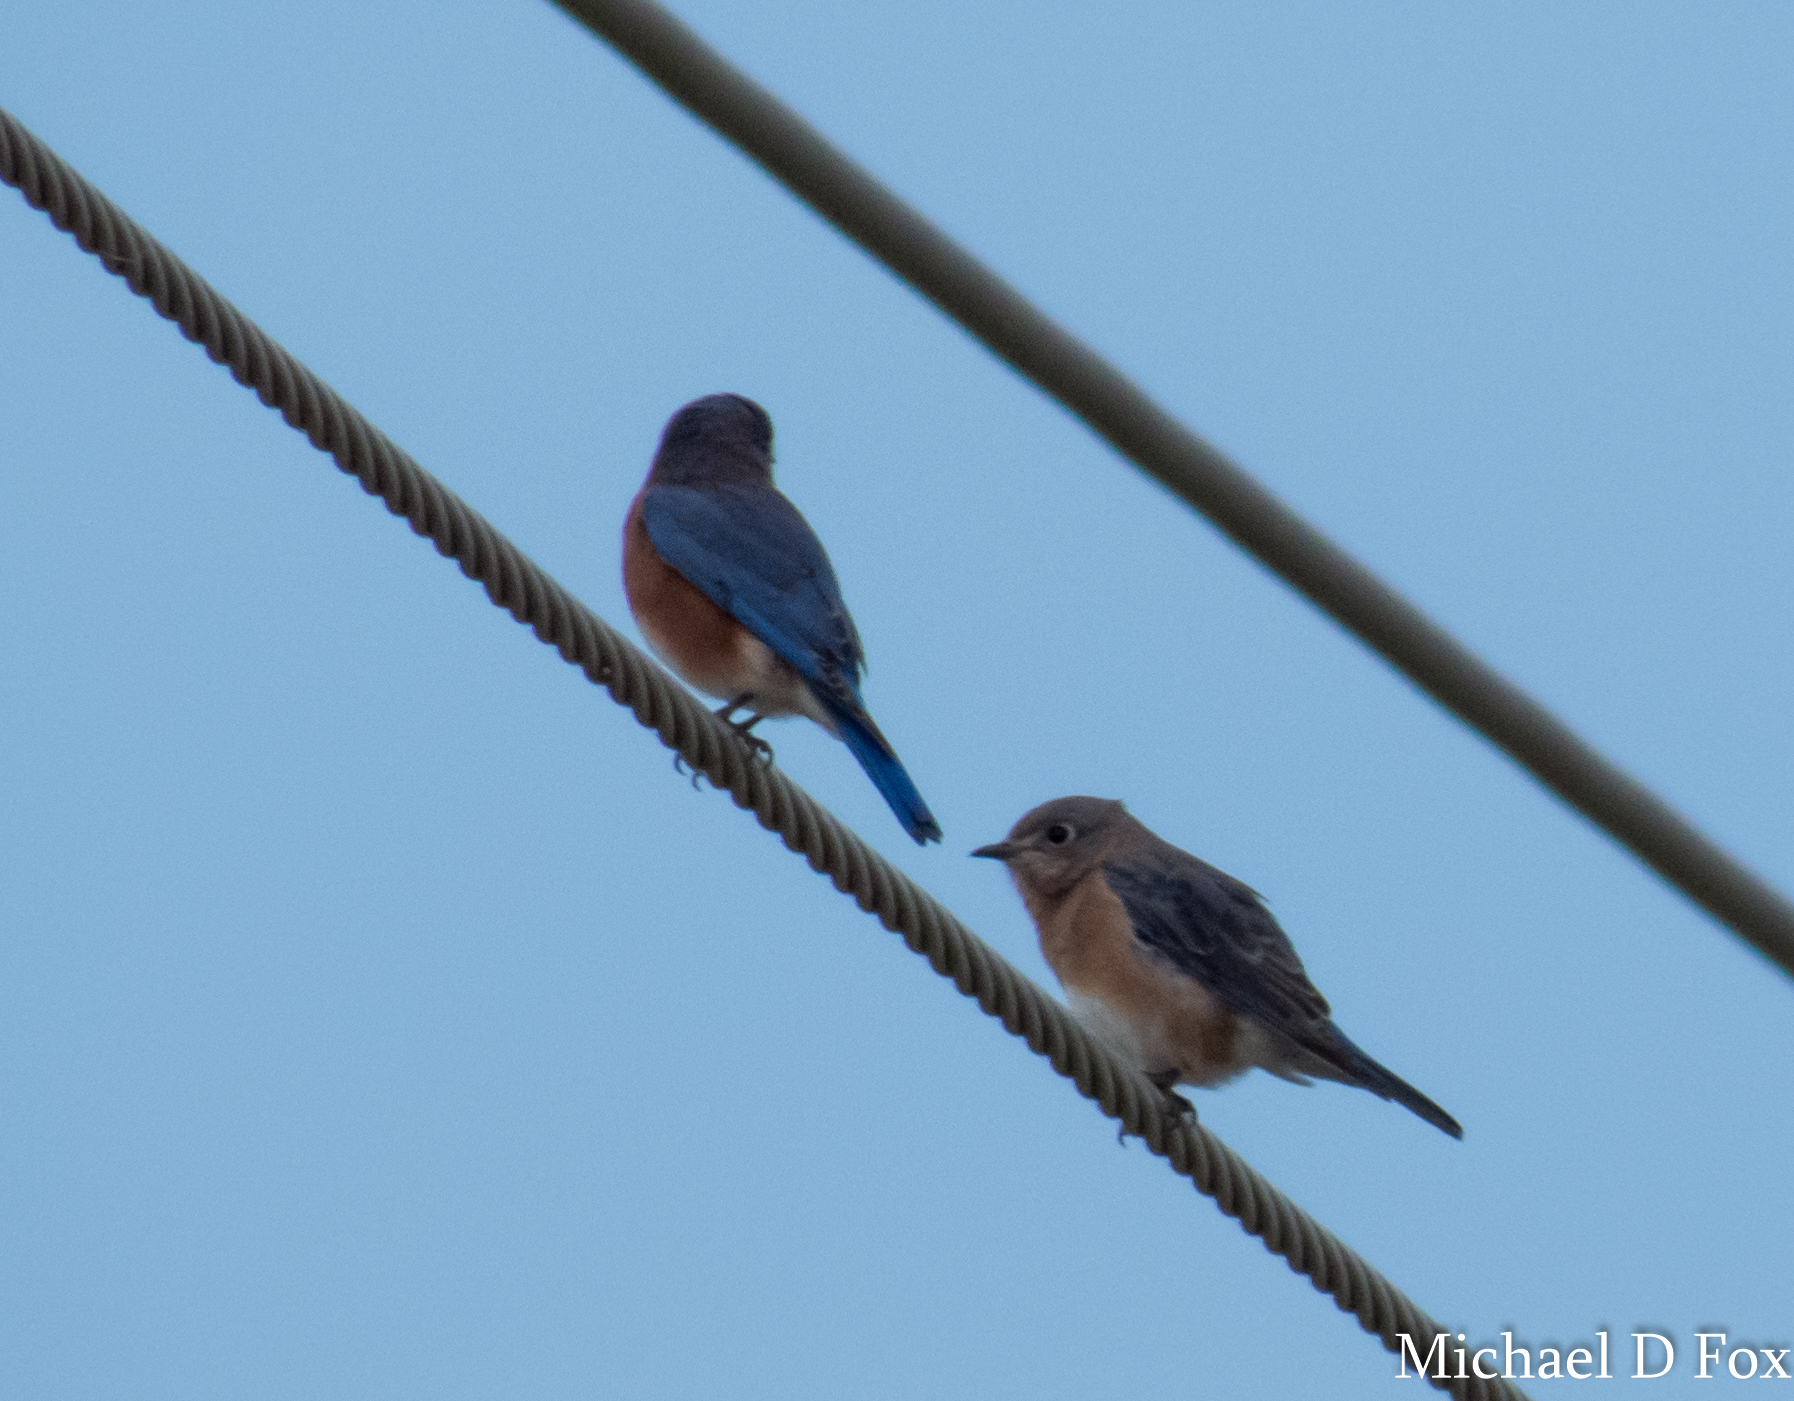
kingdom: Animalia
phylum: Chordata
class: Aves
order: Passeriformes
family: Turdidae
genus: Sialia
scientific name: Sialia sialis
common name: Eastern bluebird
